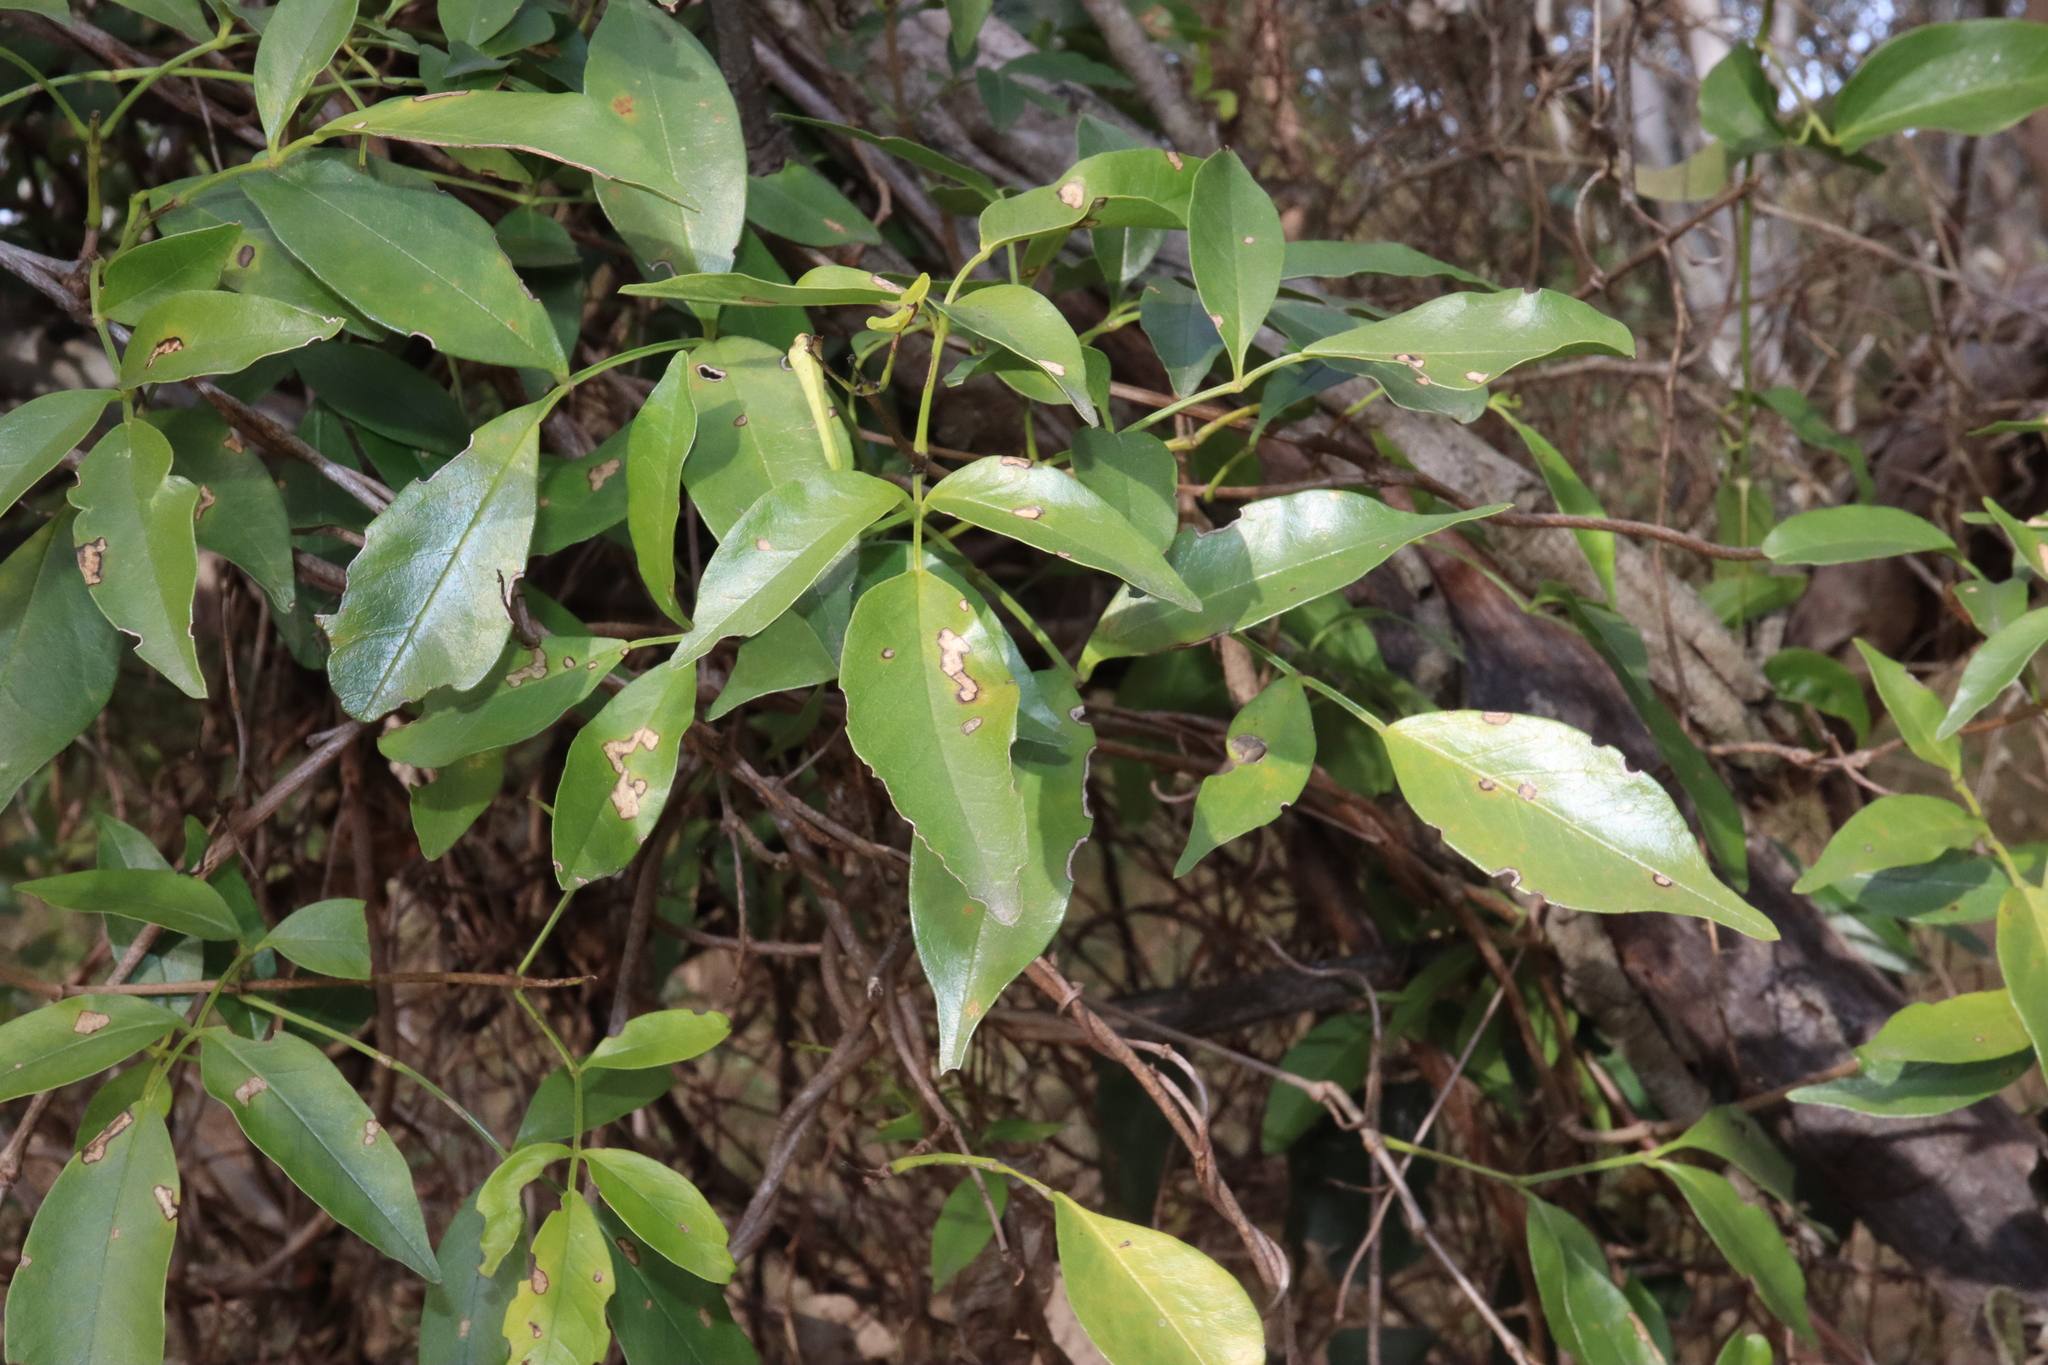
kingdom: Plantae
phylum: Tracheophyta
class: Magnoliopsida
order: Lamiales
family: Bignoniaceae
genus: Pandorea
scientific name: Pandorea pandorana
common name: Wonga-wonga-vine
